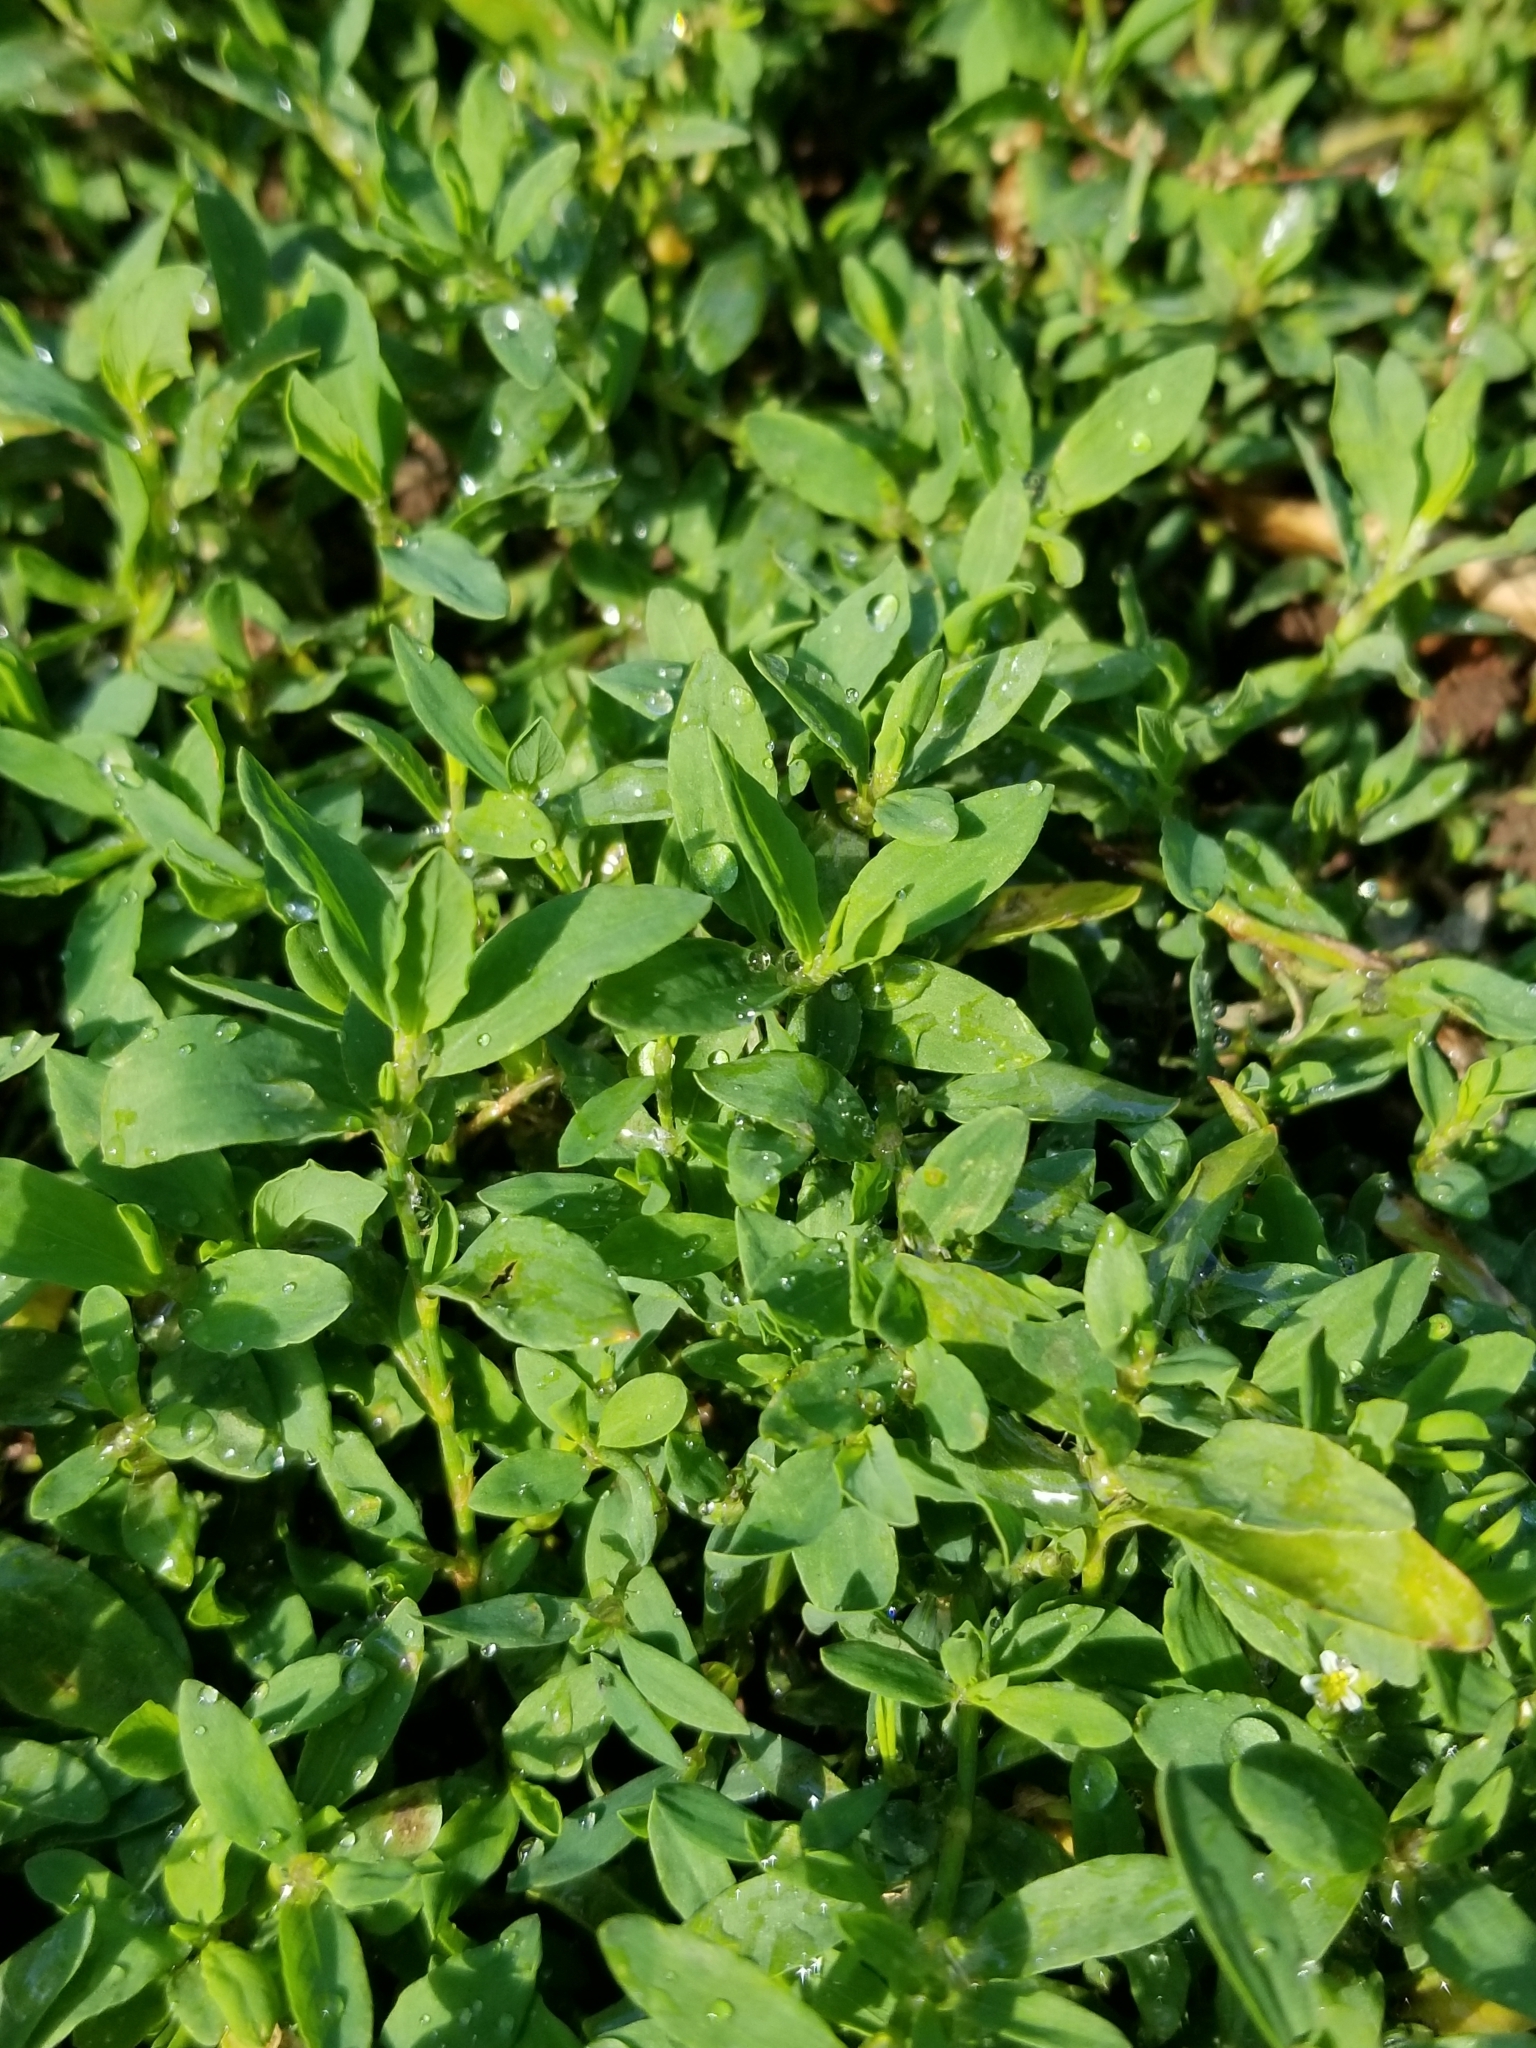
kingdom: Plantae
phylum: Tracheophyta
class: Magnoliopsida
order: Caryophyllales
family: Polygonaceae
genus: Polygonum
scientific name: Polygonum aviculare
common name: Prostrate knotweed
